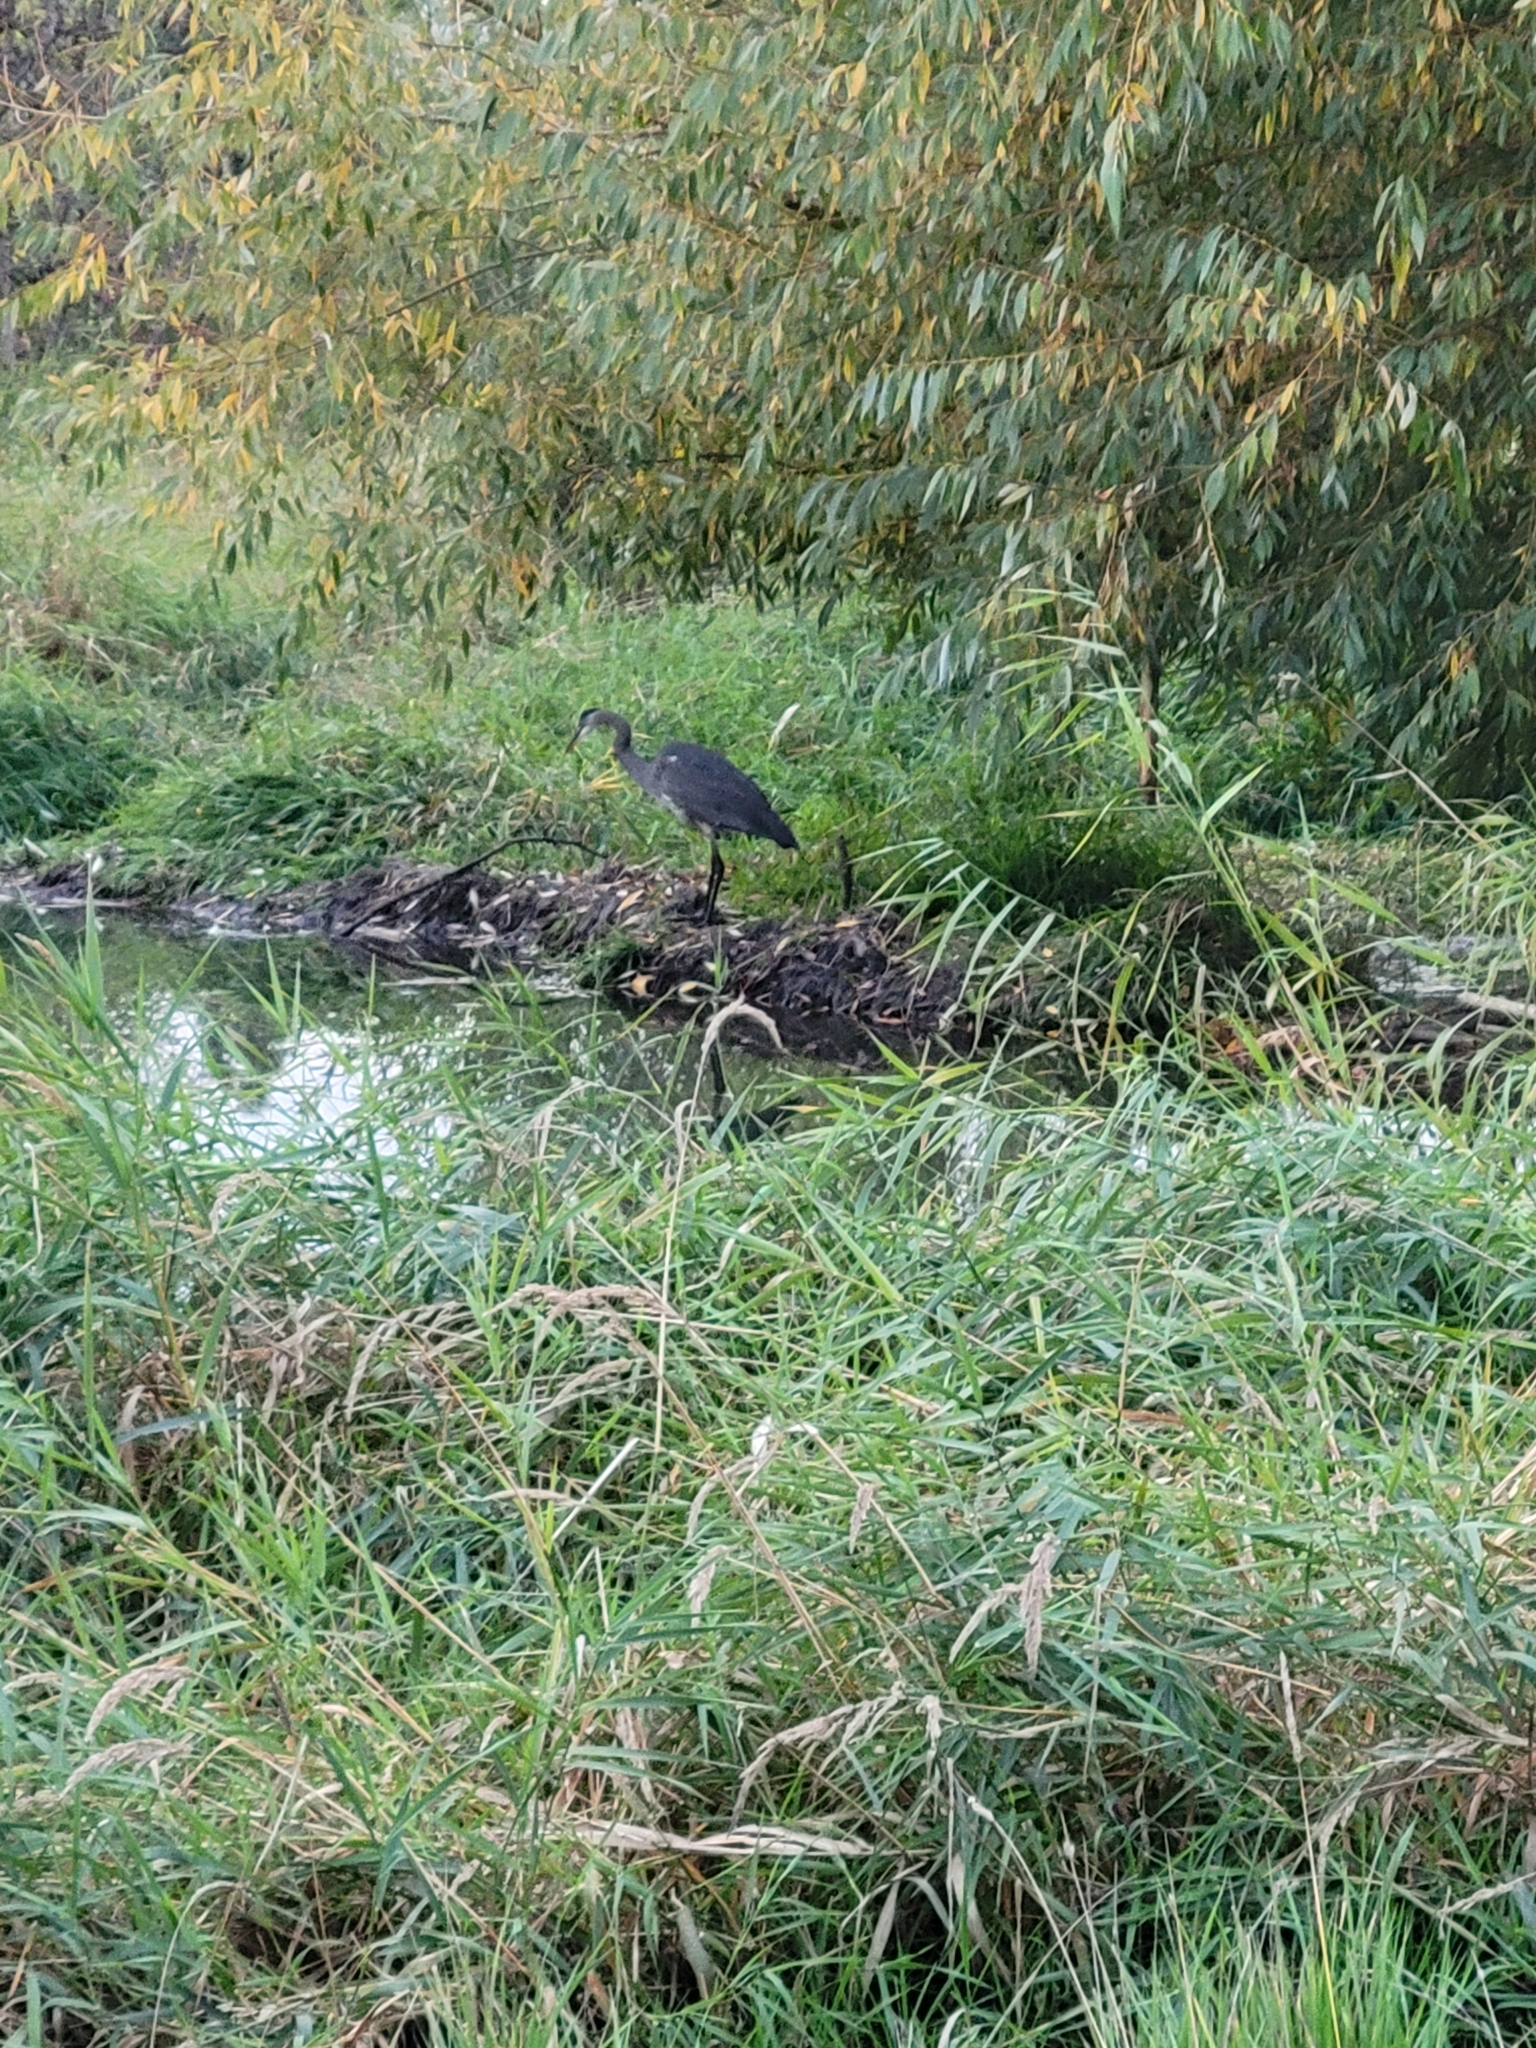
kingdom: Animalia
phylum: Chordata
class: Aves
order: Pelecaniformes
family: Ardeidae
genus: Ardea
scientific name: Ardea herodias
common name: Great blue heron
